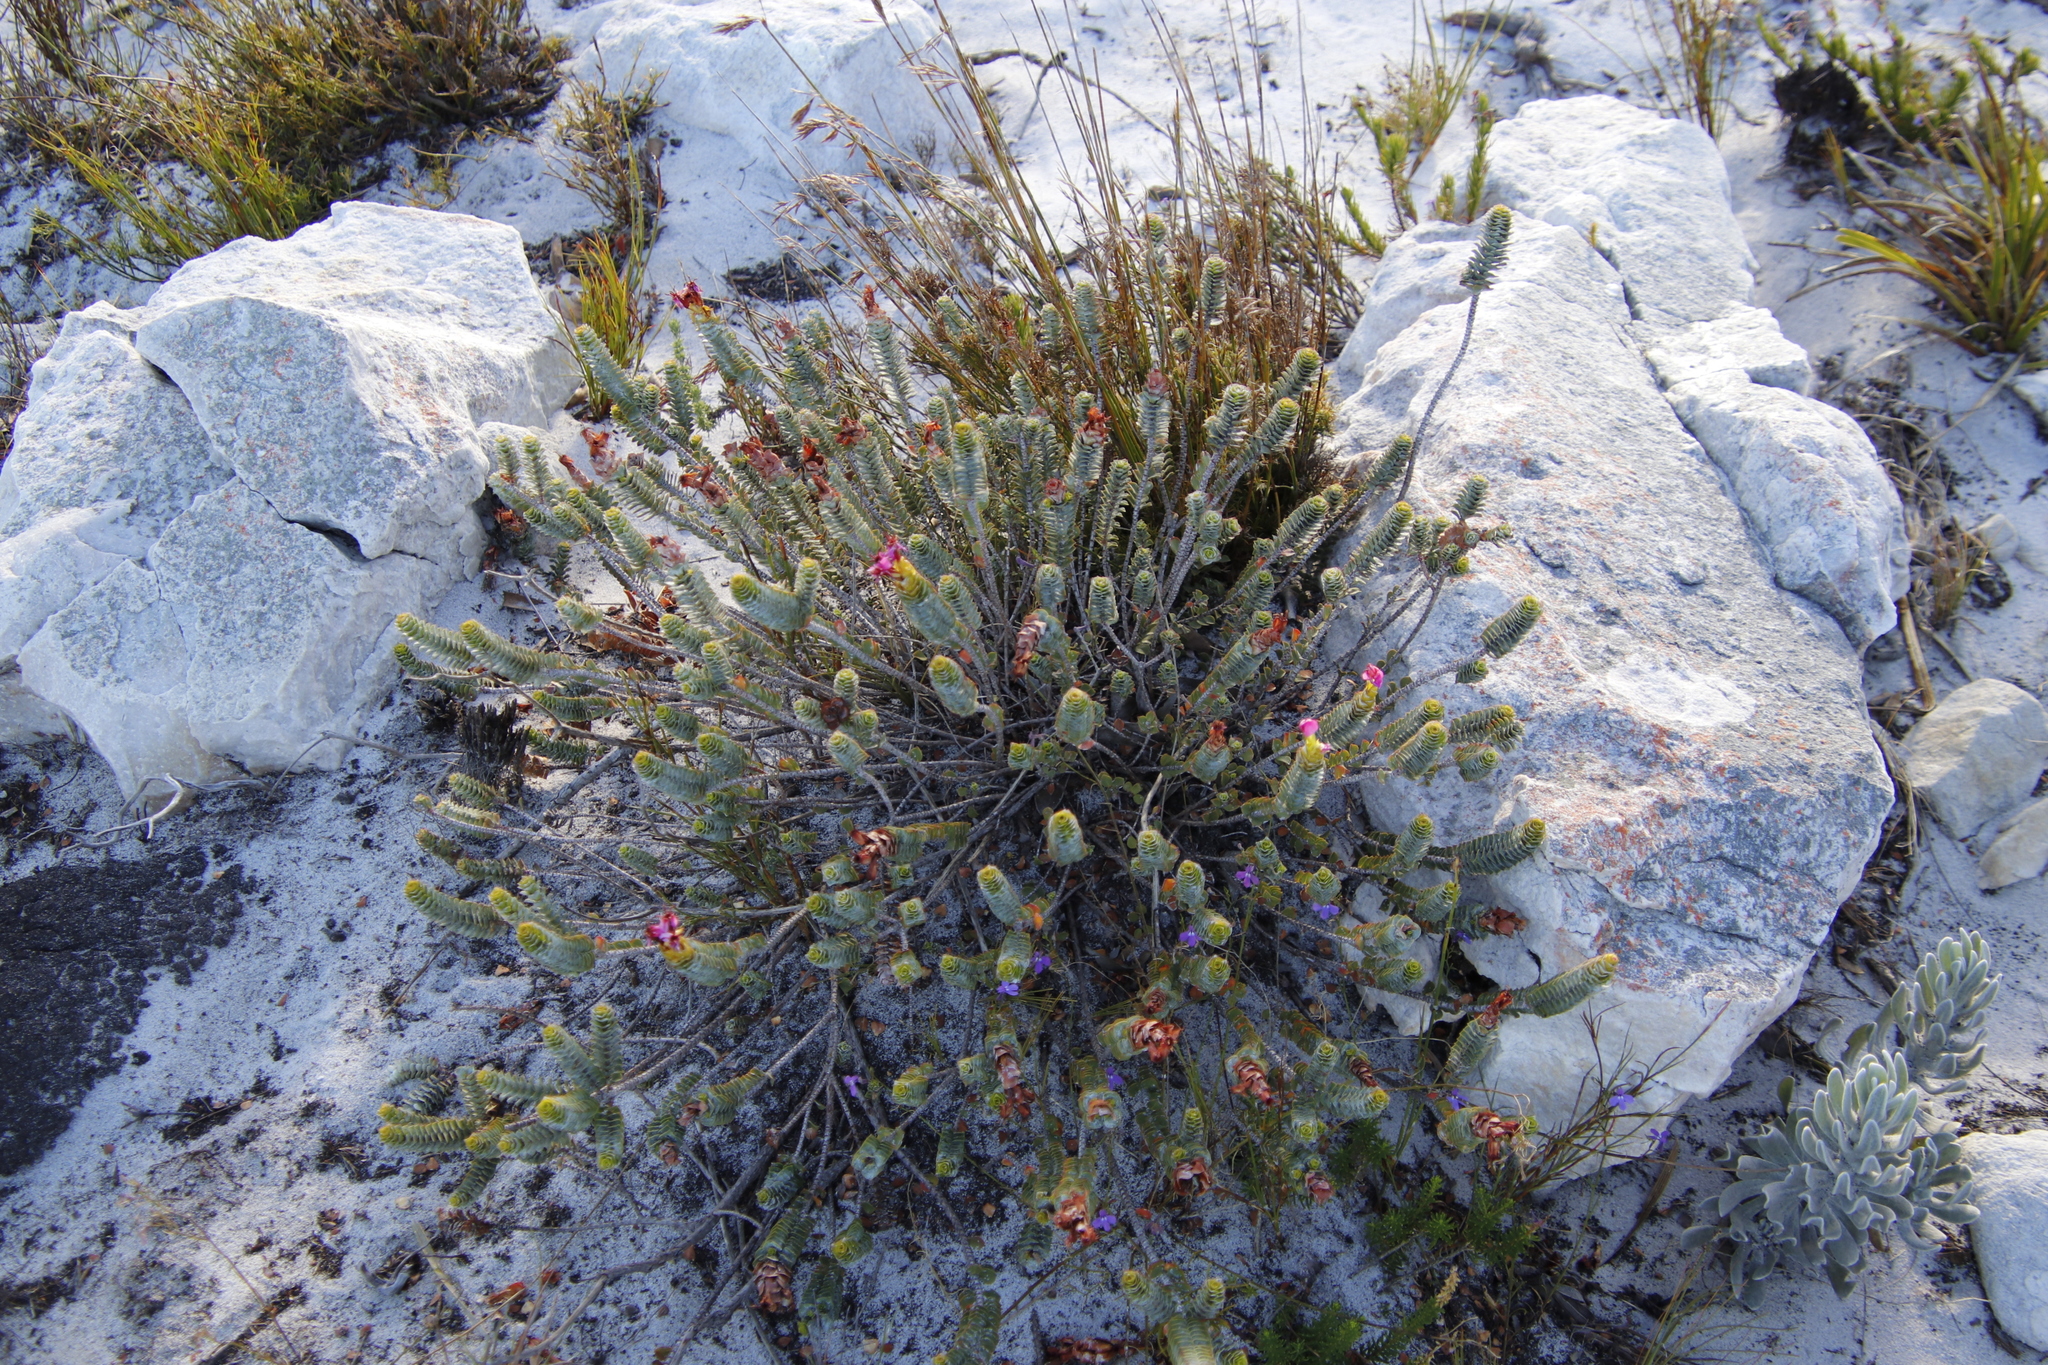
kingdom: Plantae
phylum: Tracheophyta
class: Magnoliopsida
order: Myrtales
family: Penaeaceae
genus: Saltera
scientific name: Saltera sarcocolla
